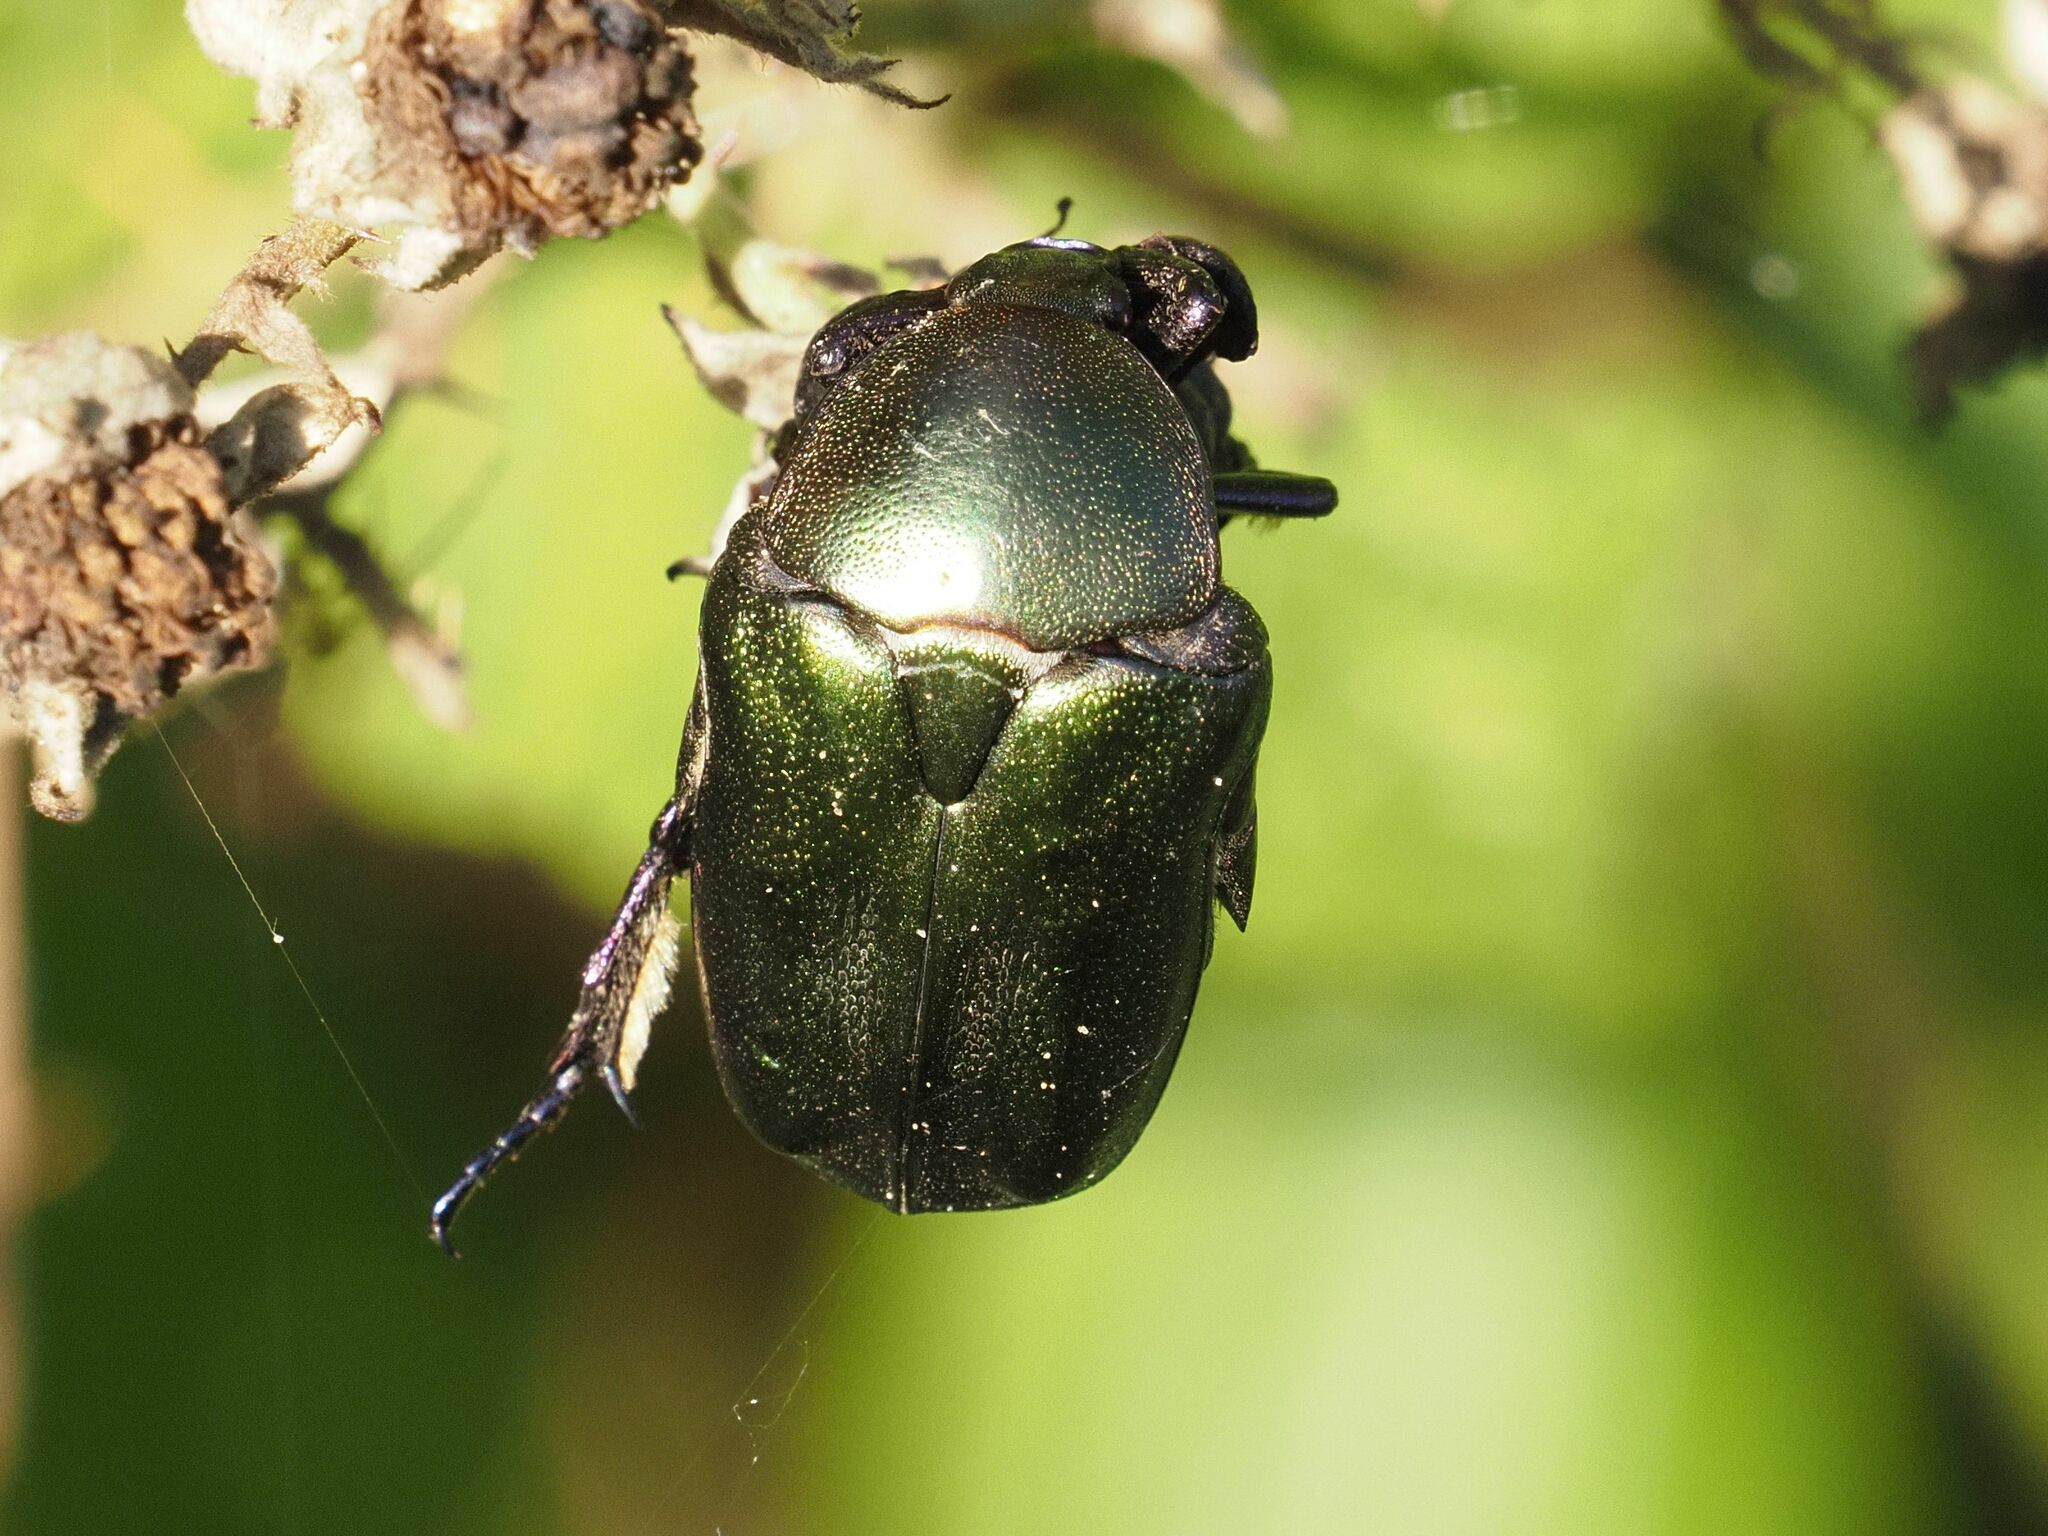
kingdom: Animalia
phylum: Arthropoda
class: Insecta
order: Coleoptera
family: Scarabaeidae
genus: Protaetia
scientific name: Protaetia cuprea
